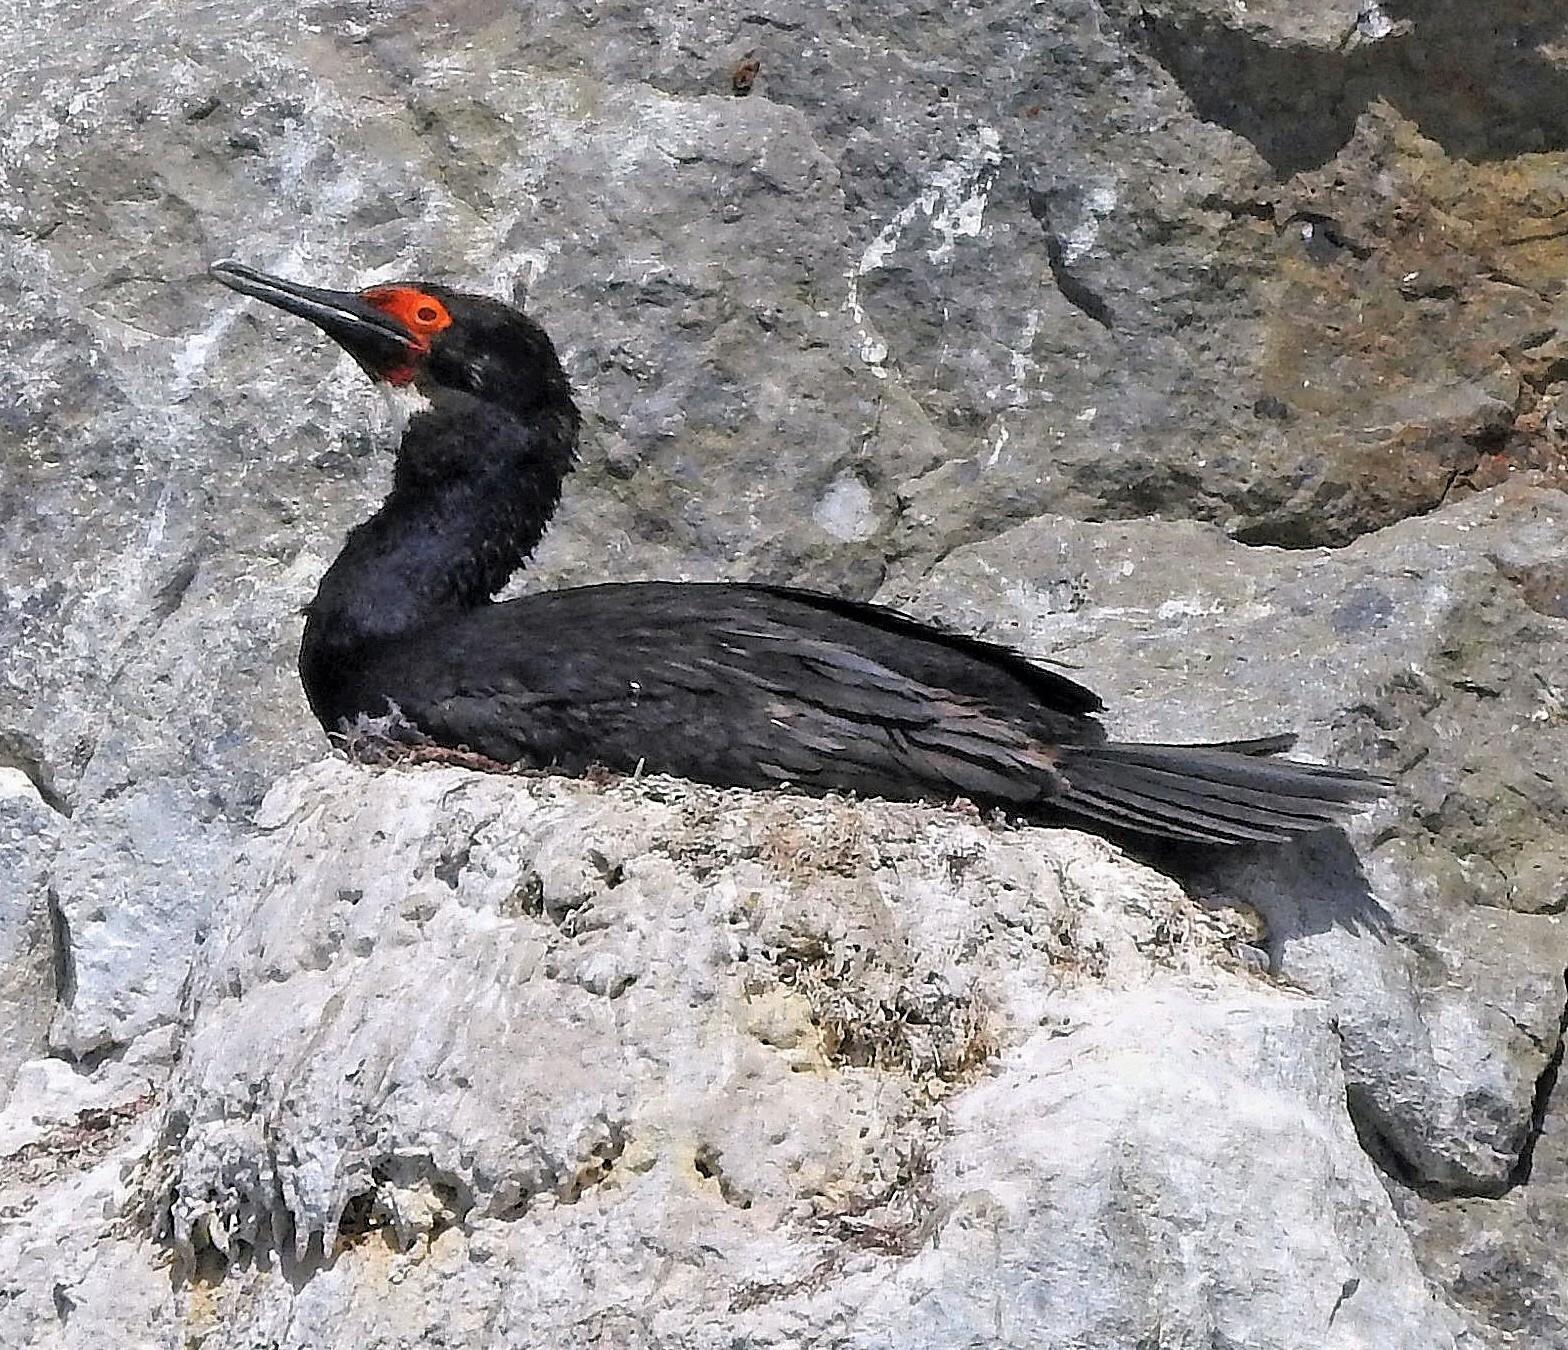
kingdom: Animalia
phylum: Chordata
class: Aves
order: Suliformes
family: Phalacrocoracidae
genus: Phalacrocorax
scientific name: Phalacrocorax magellanicus
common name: Rock shag
